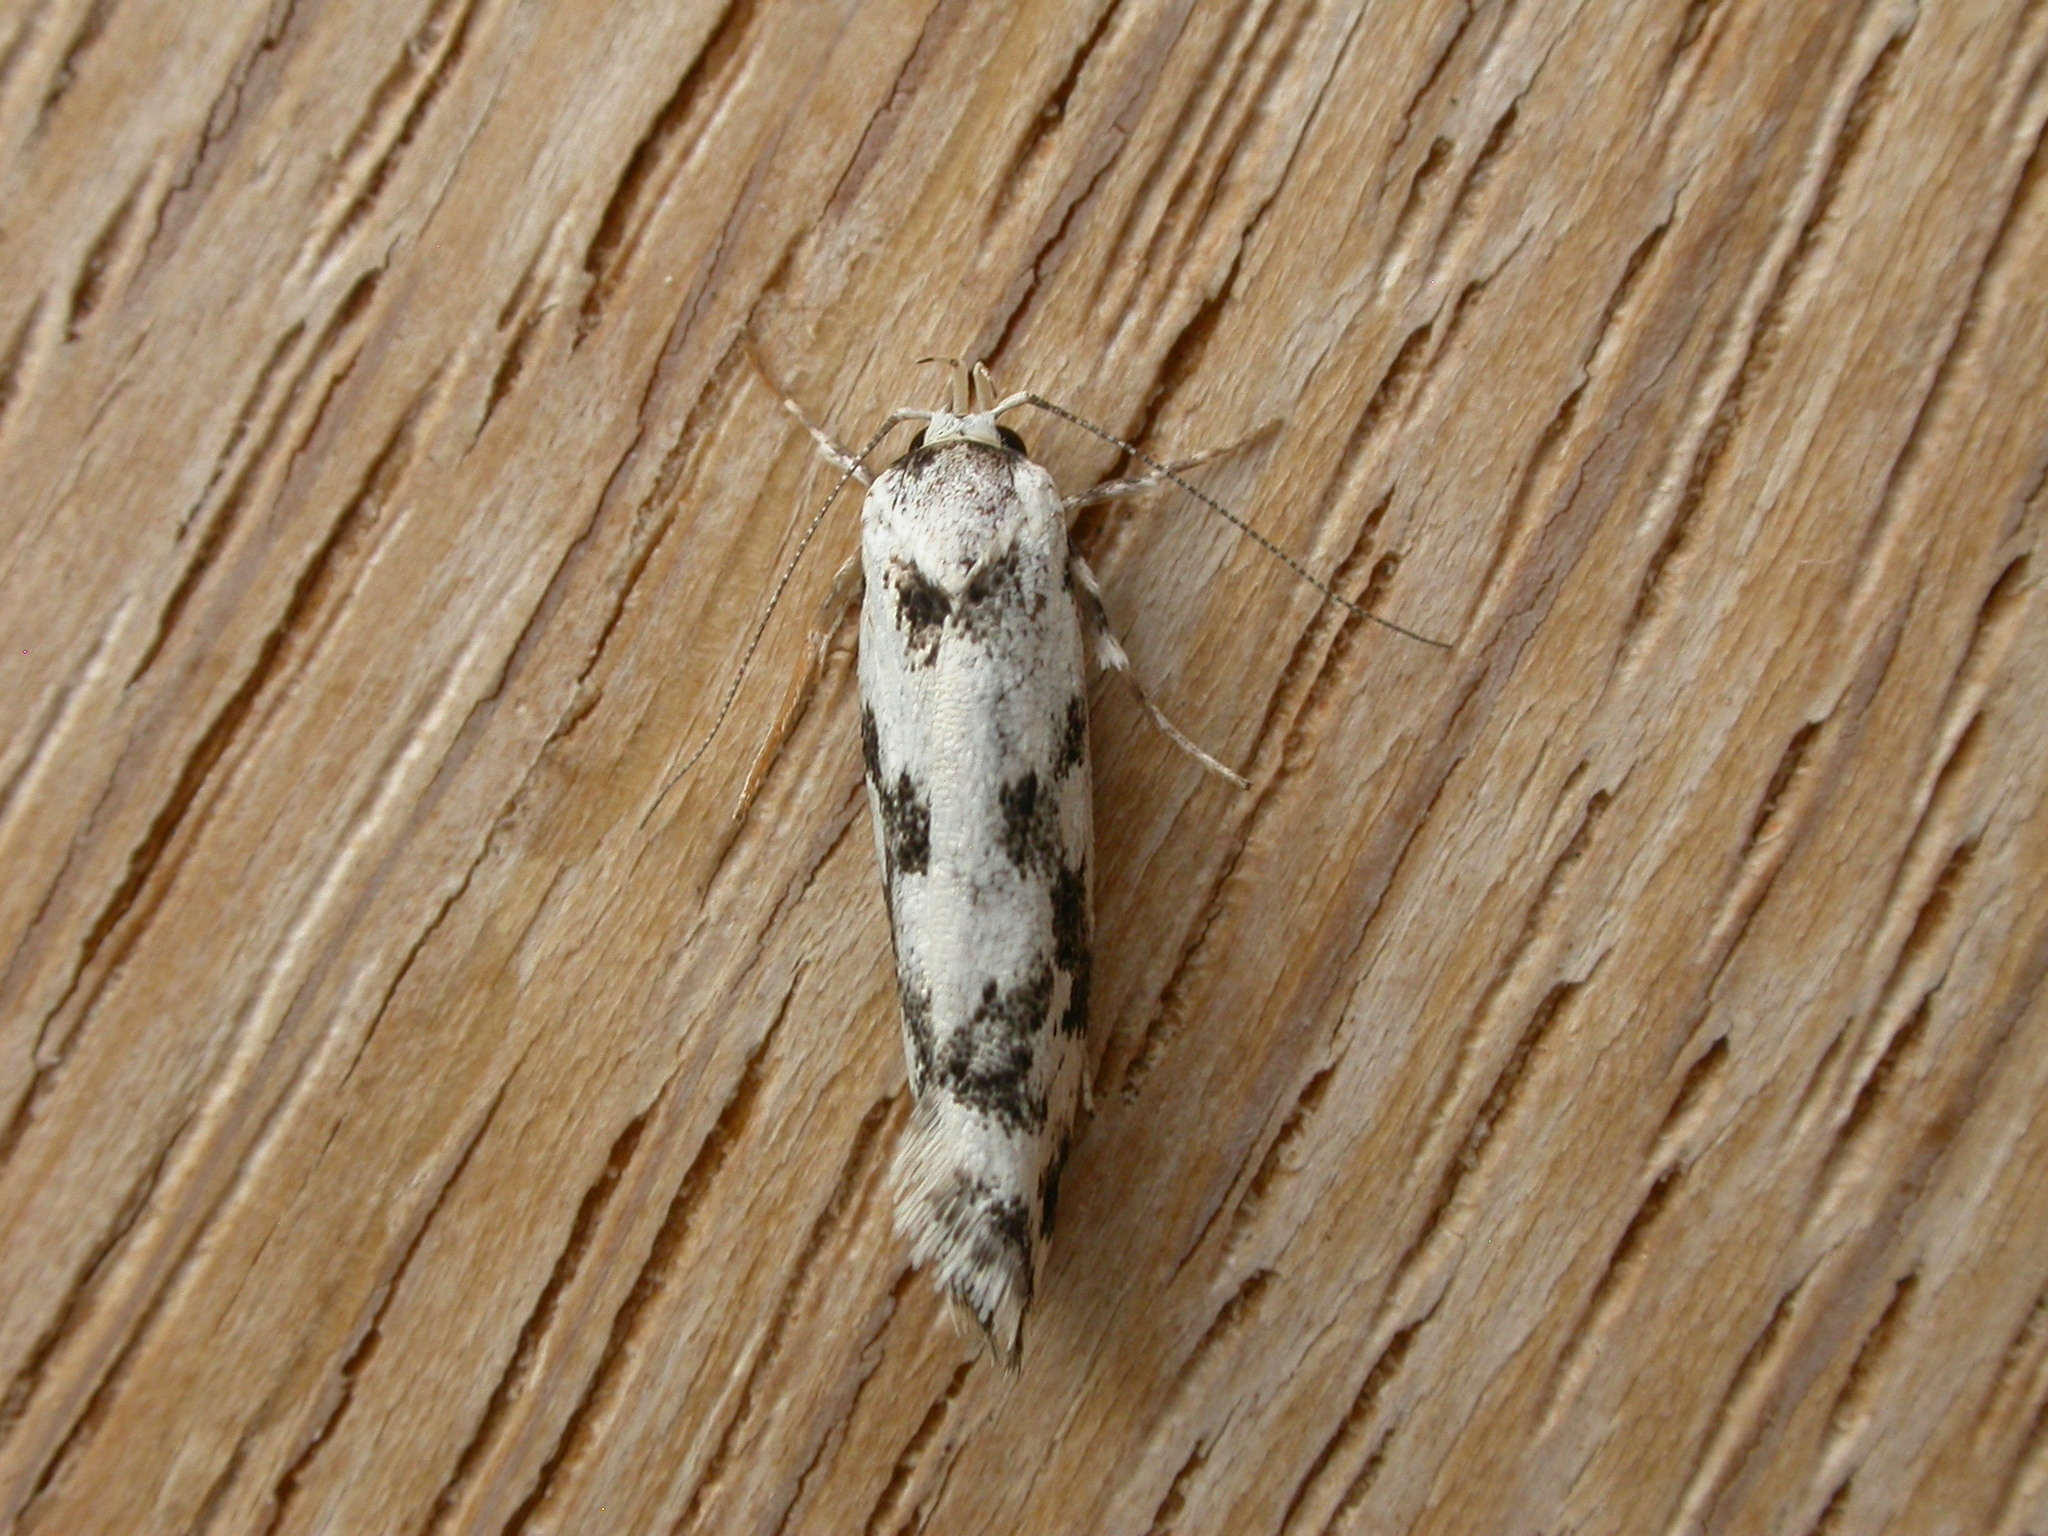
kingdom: Animalia
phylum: Arthropoda
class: Insecta
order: Lepidoptera
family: Xyloryctidae
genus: Lichenaula
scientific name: Lichenaula calligrapha
